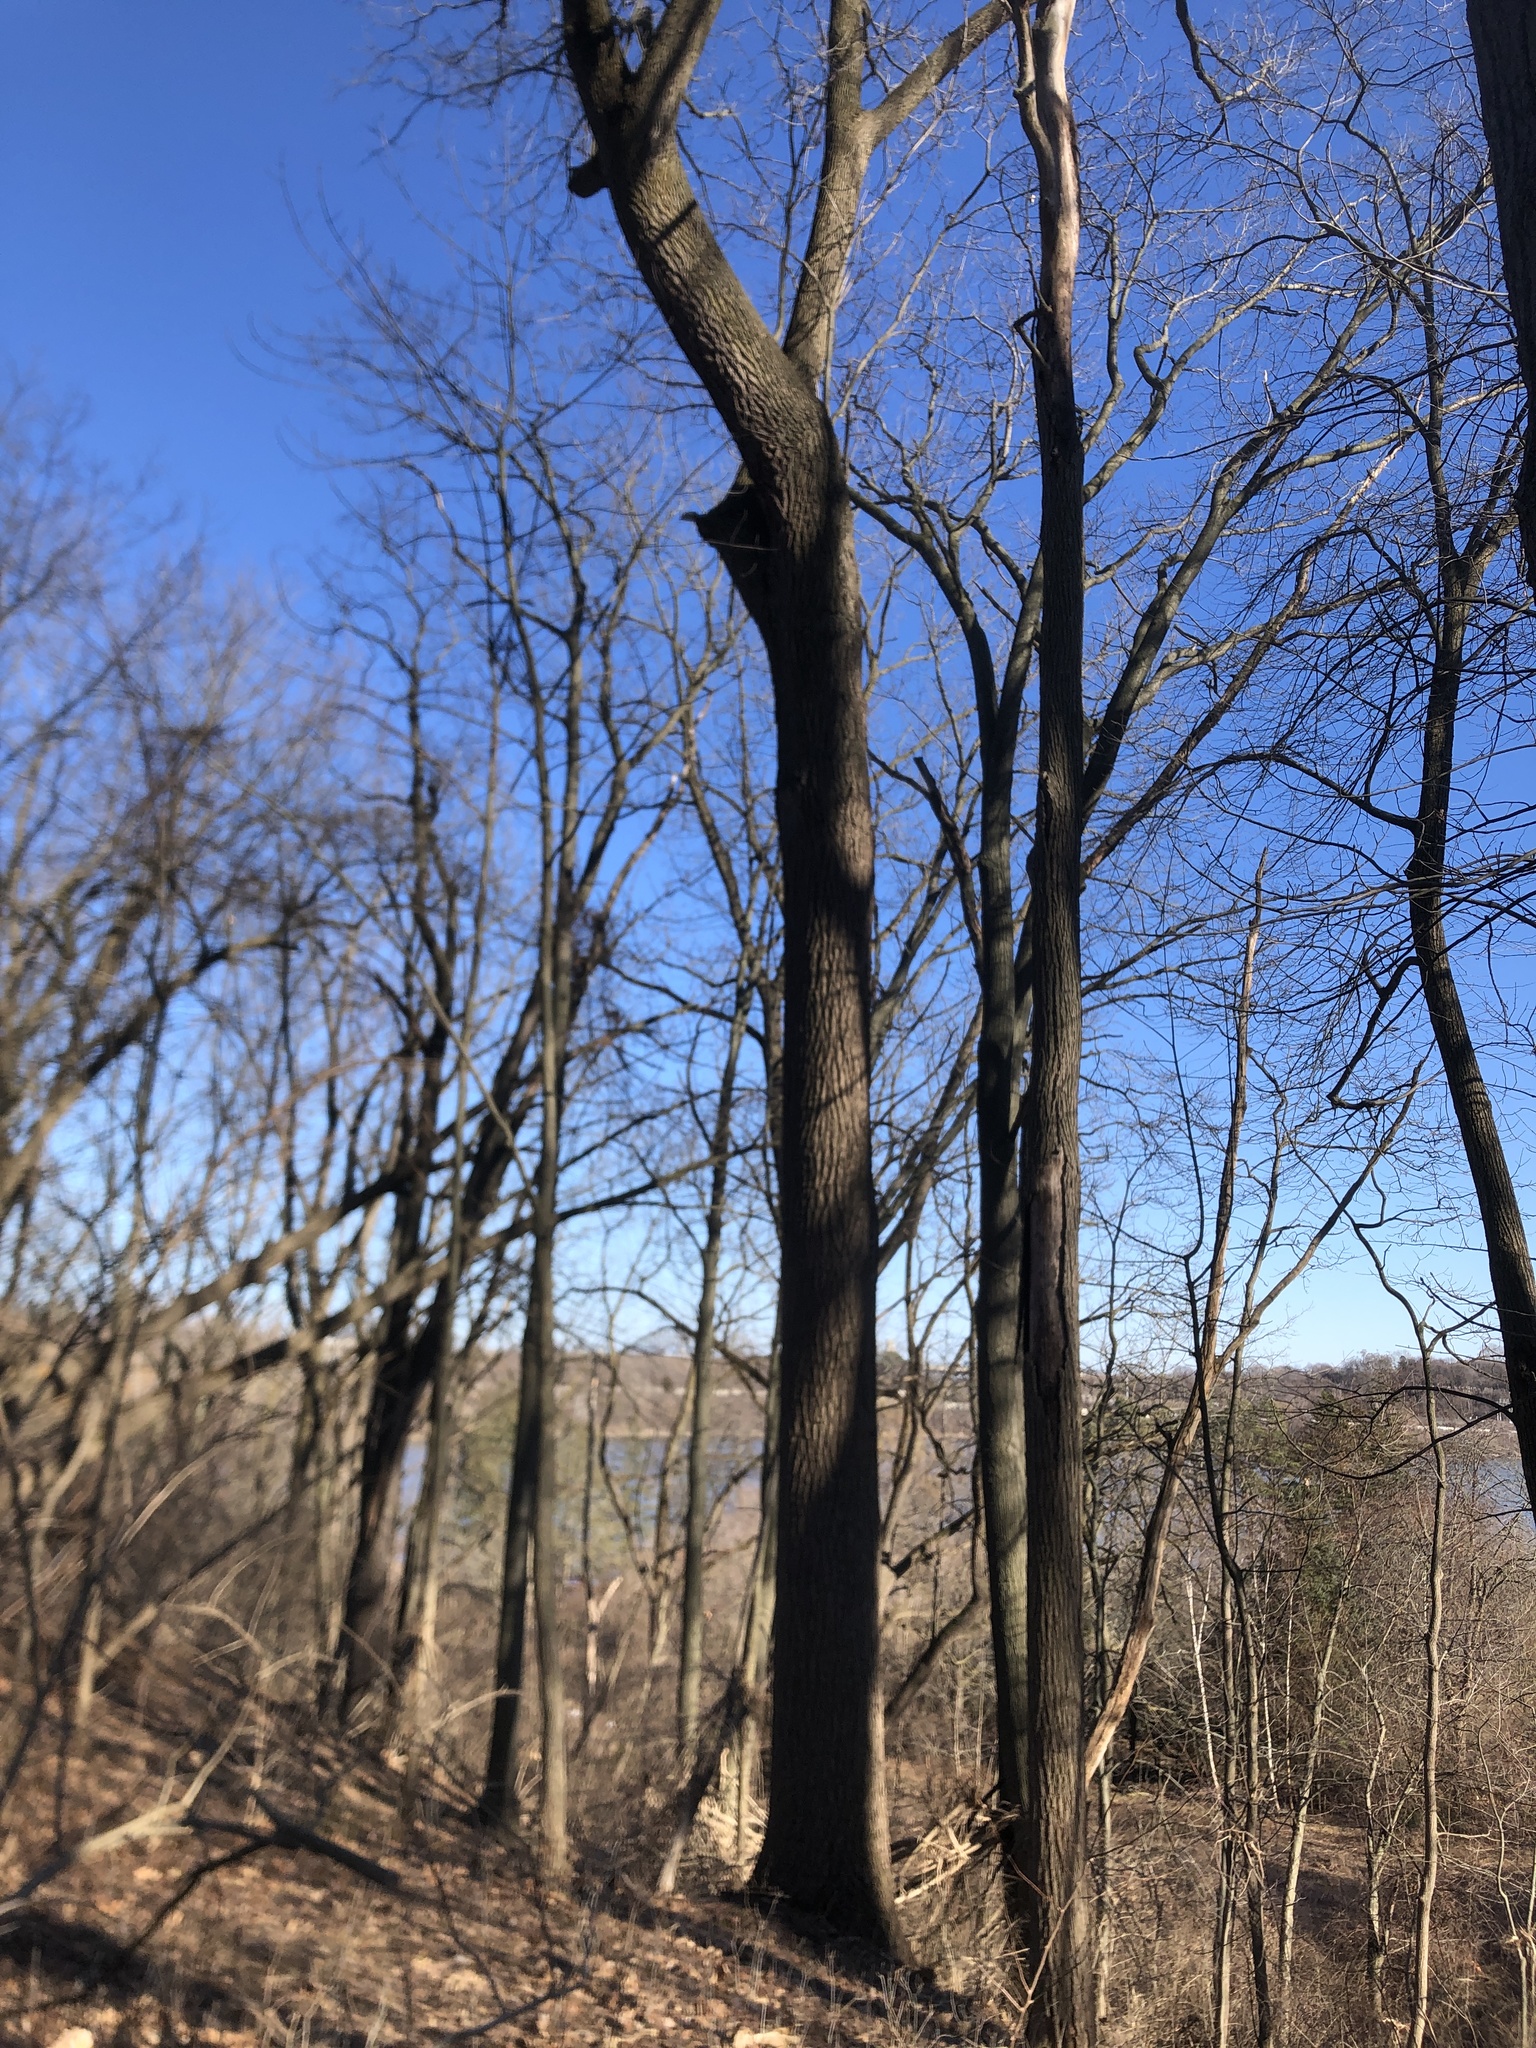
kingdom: Plantae
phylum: Tracheophyta
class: Magnoliopsida
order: Fagales
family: Juglandaceae
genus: Juglans
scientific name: Juglans nigra
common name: Black walnut
